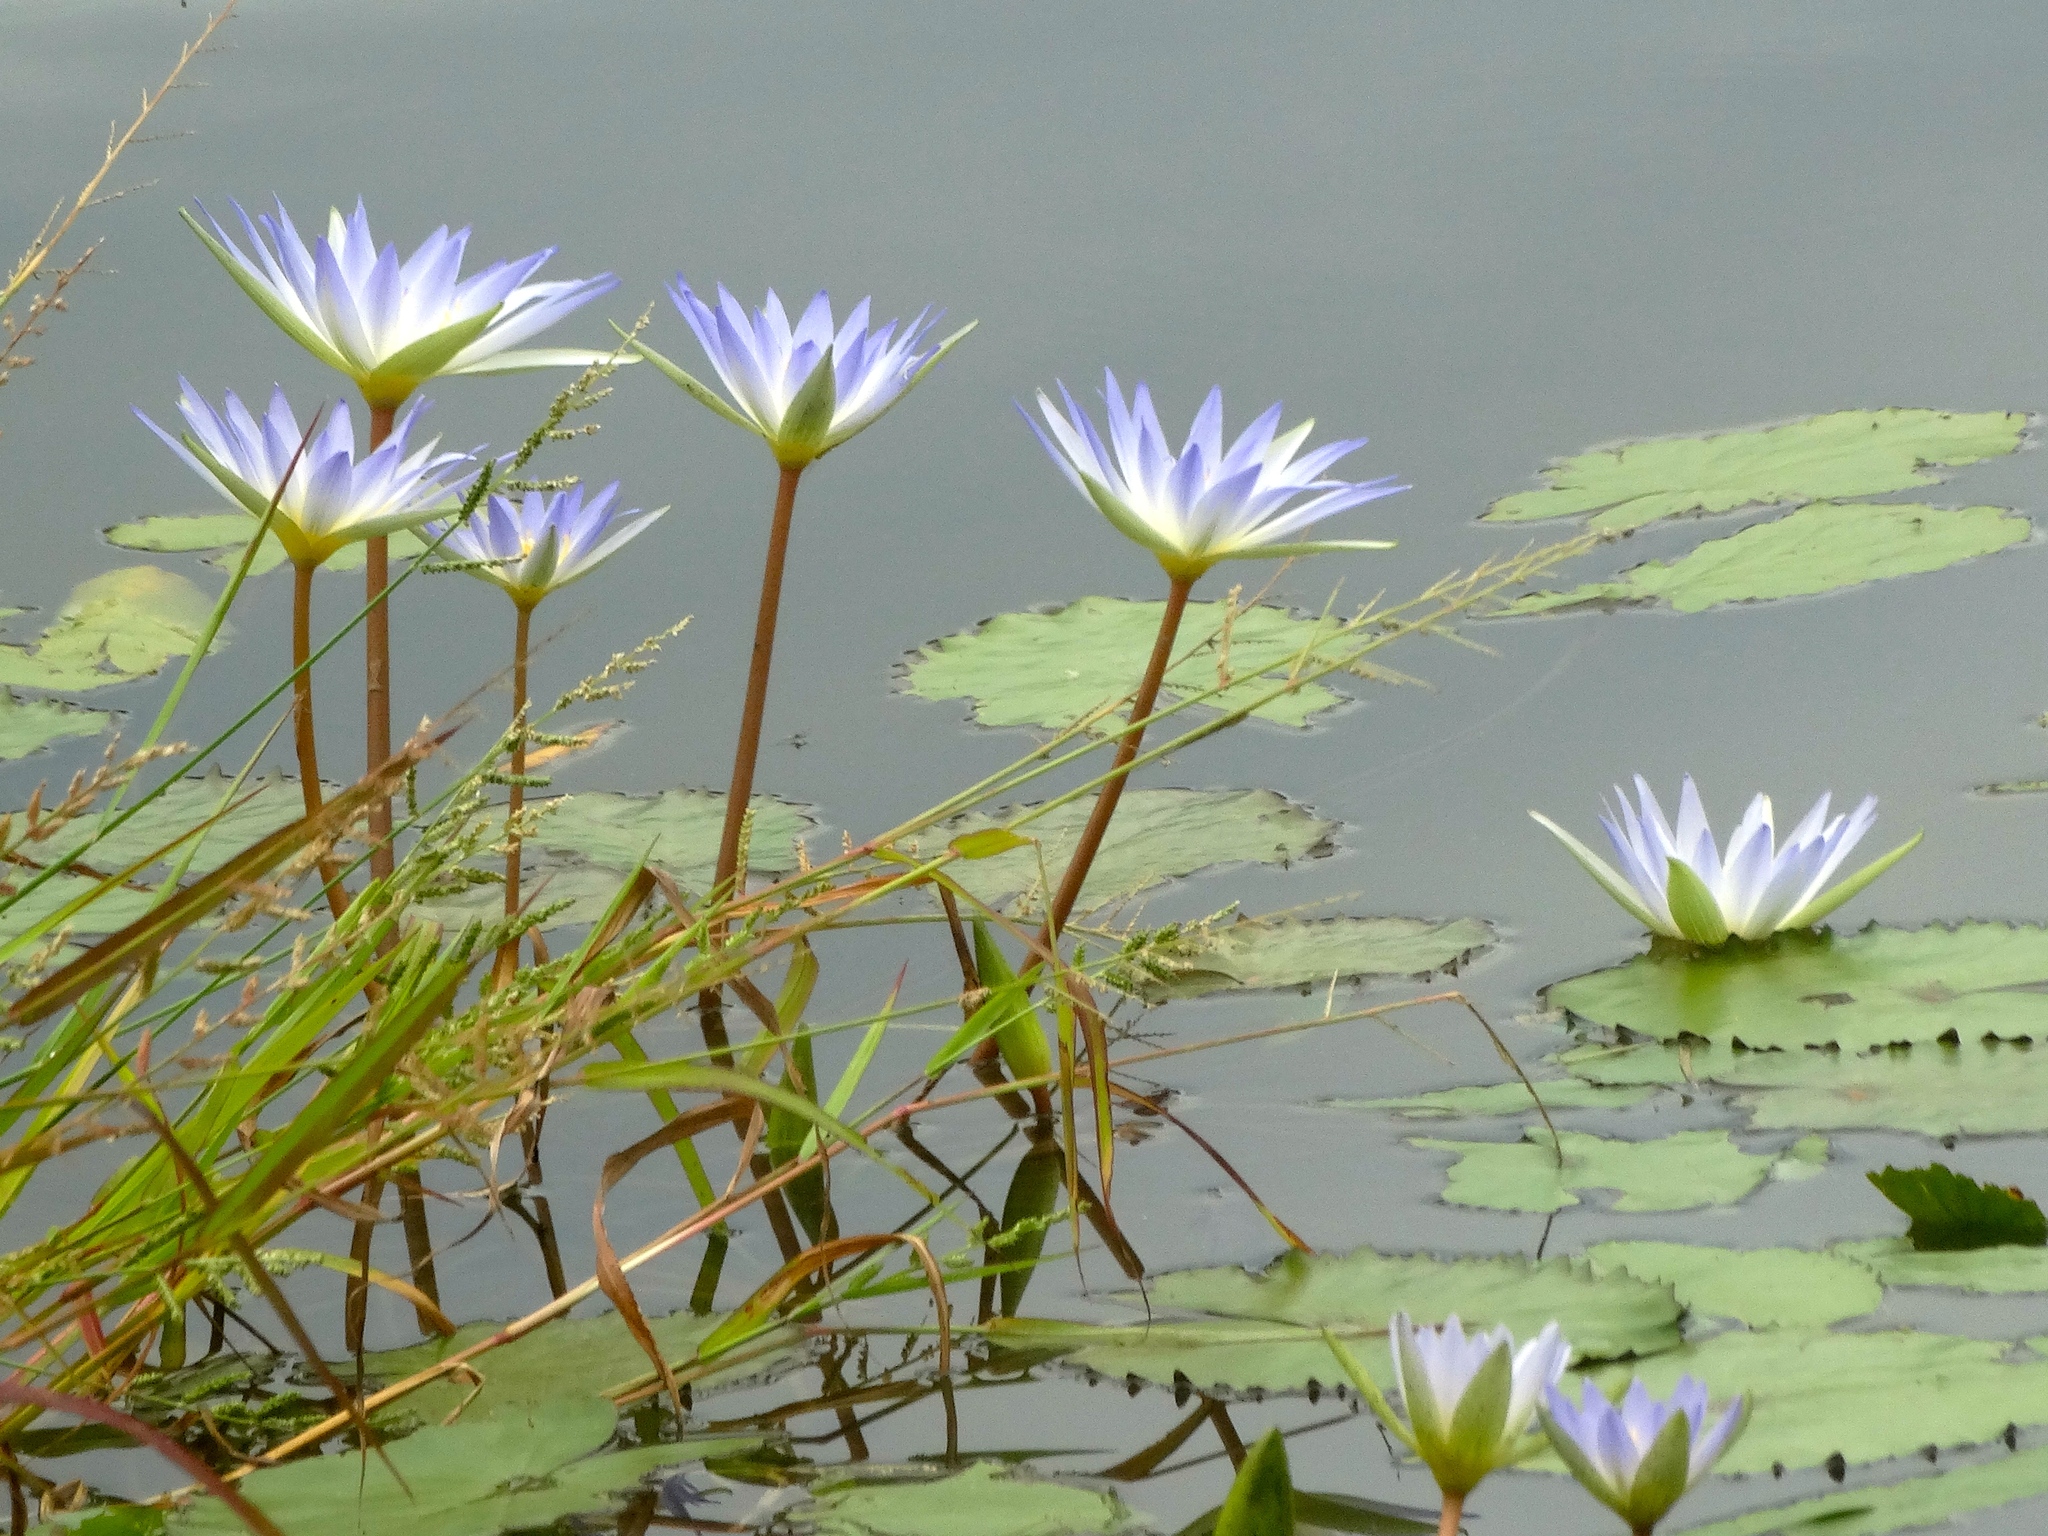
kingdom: Plantae
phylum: Tracheophyta
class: Magnoliopsida
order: Nymphaeales
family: Nymphaeaceae
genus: Nymphaea
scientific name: Nymphaea elegans
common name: Blue water-lily
